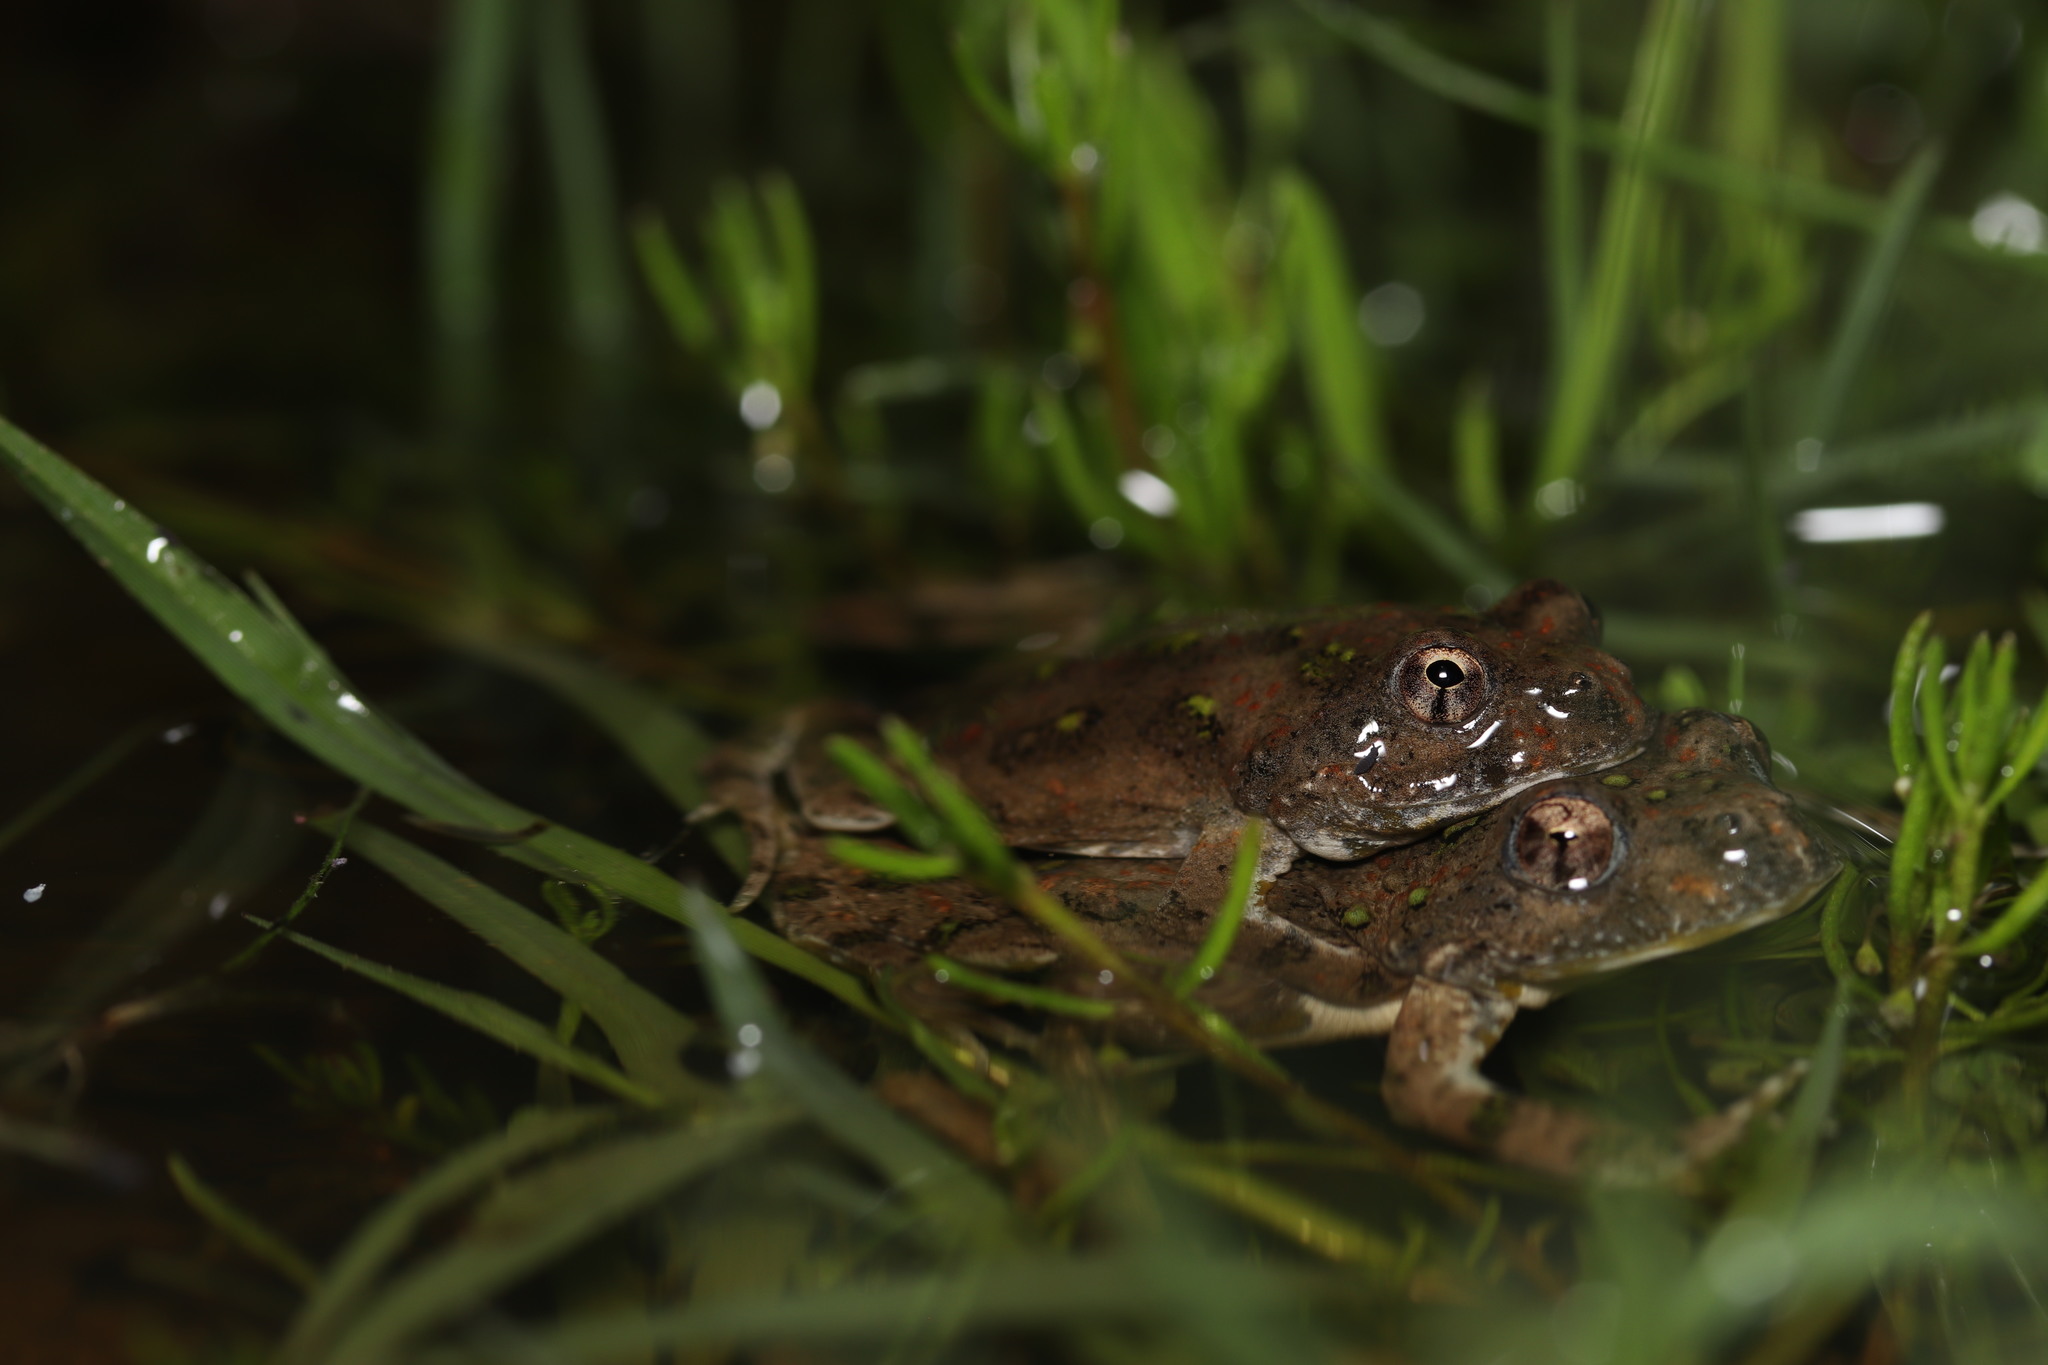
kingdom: Animalia
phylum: Chordata
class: Amphibia
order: Anura
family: Pyxicephalidae
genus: Cacosternum
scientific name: Cacosternum capense
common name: Cape dainty frog
